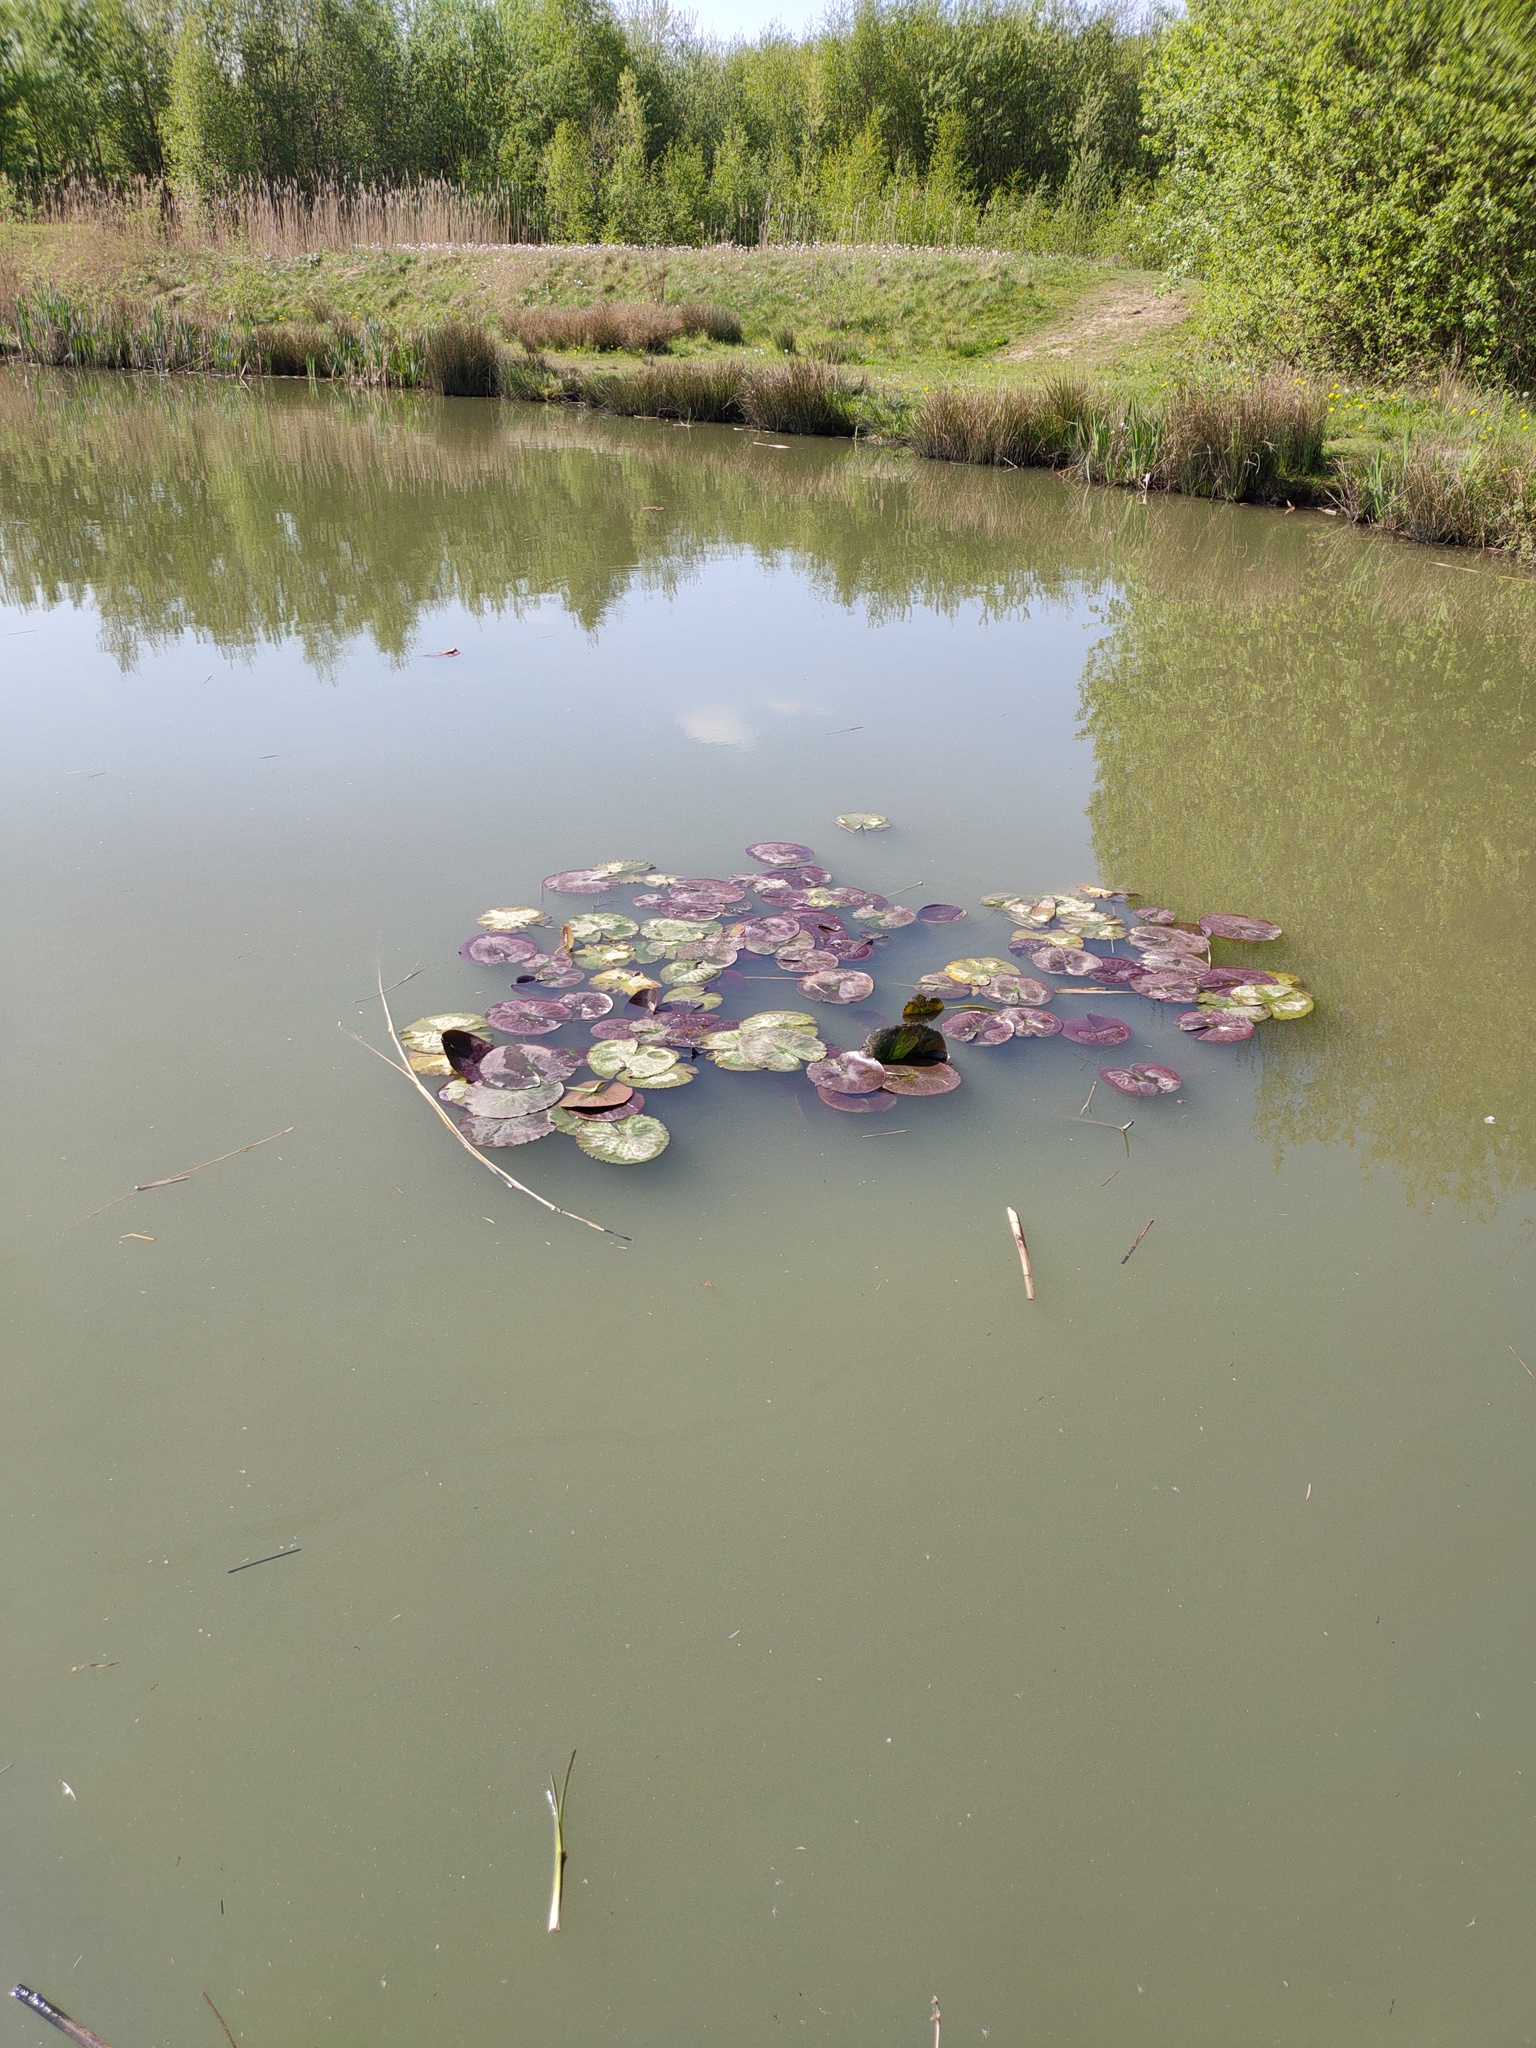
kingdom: Plantae
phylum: Tracheophyta
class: Magnoliopsida
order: Nymphaeales
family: Nymphaeaceae
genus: Nuphar
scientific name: Nuphar lutea
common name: Yellow water-lily
